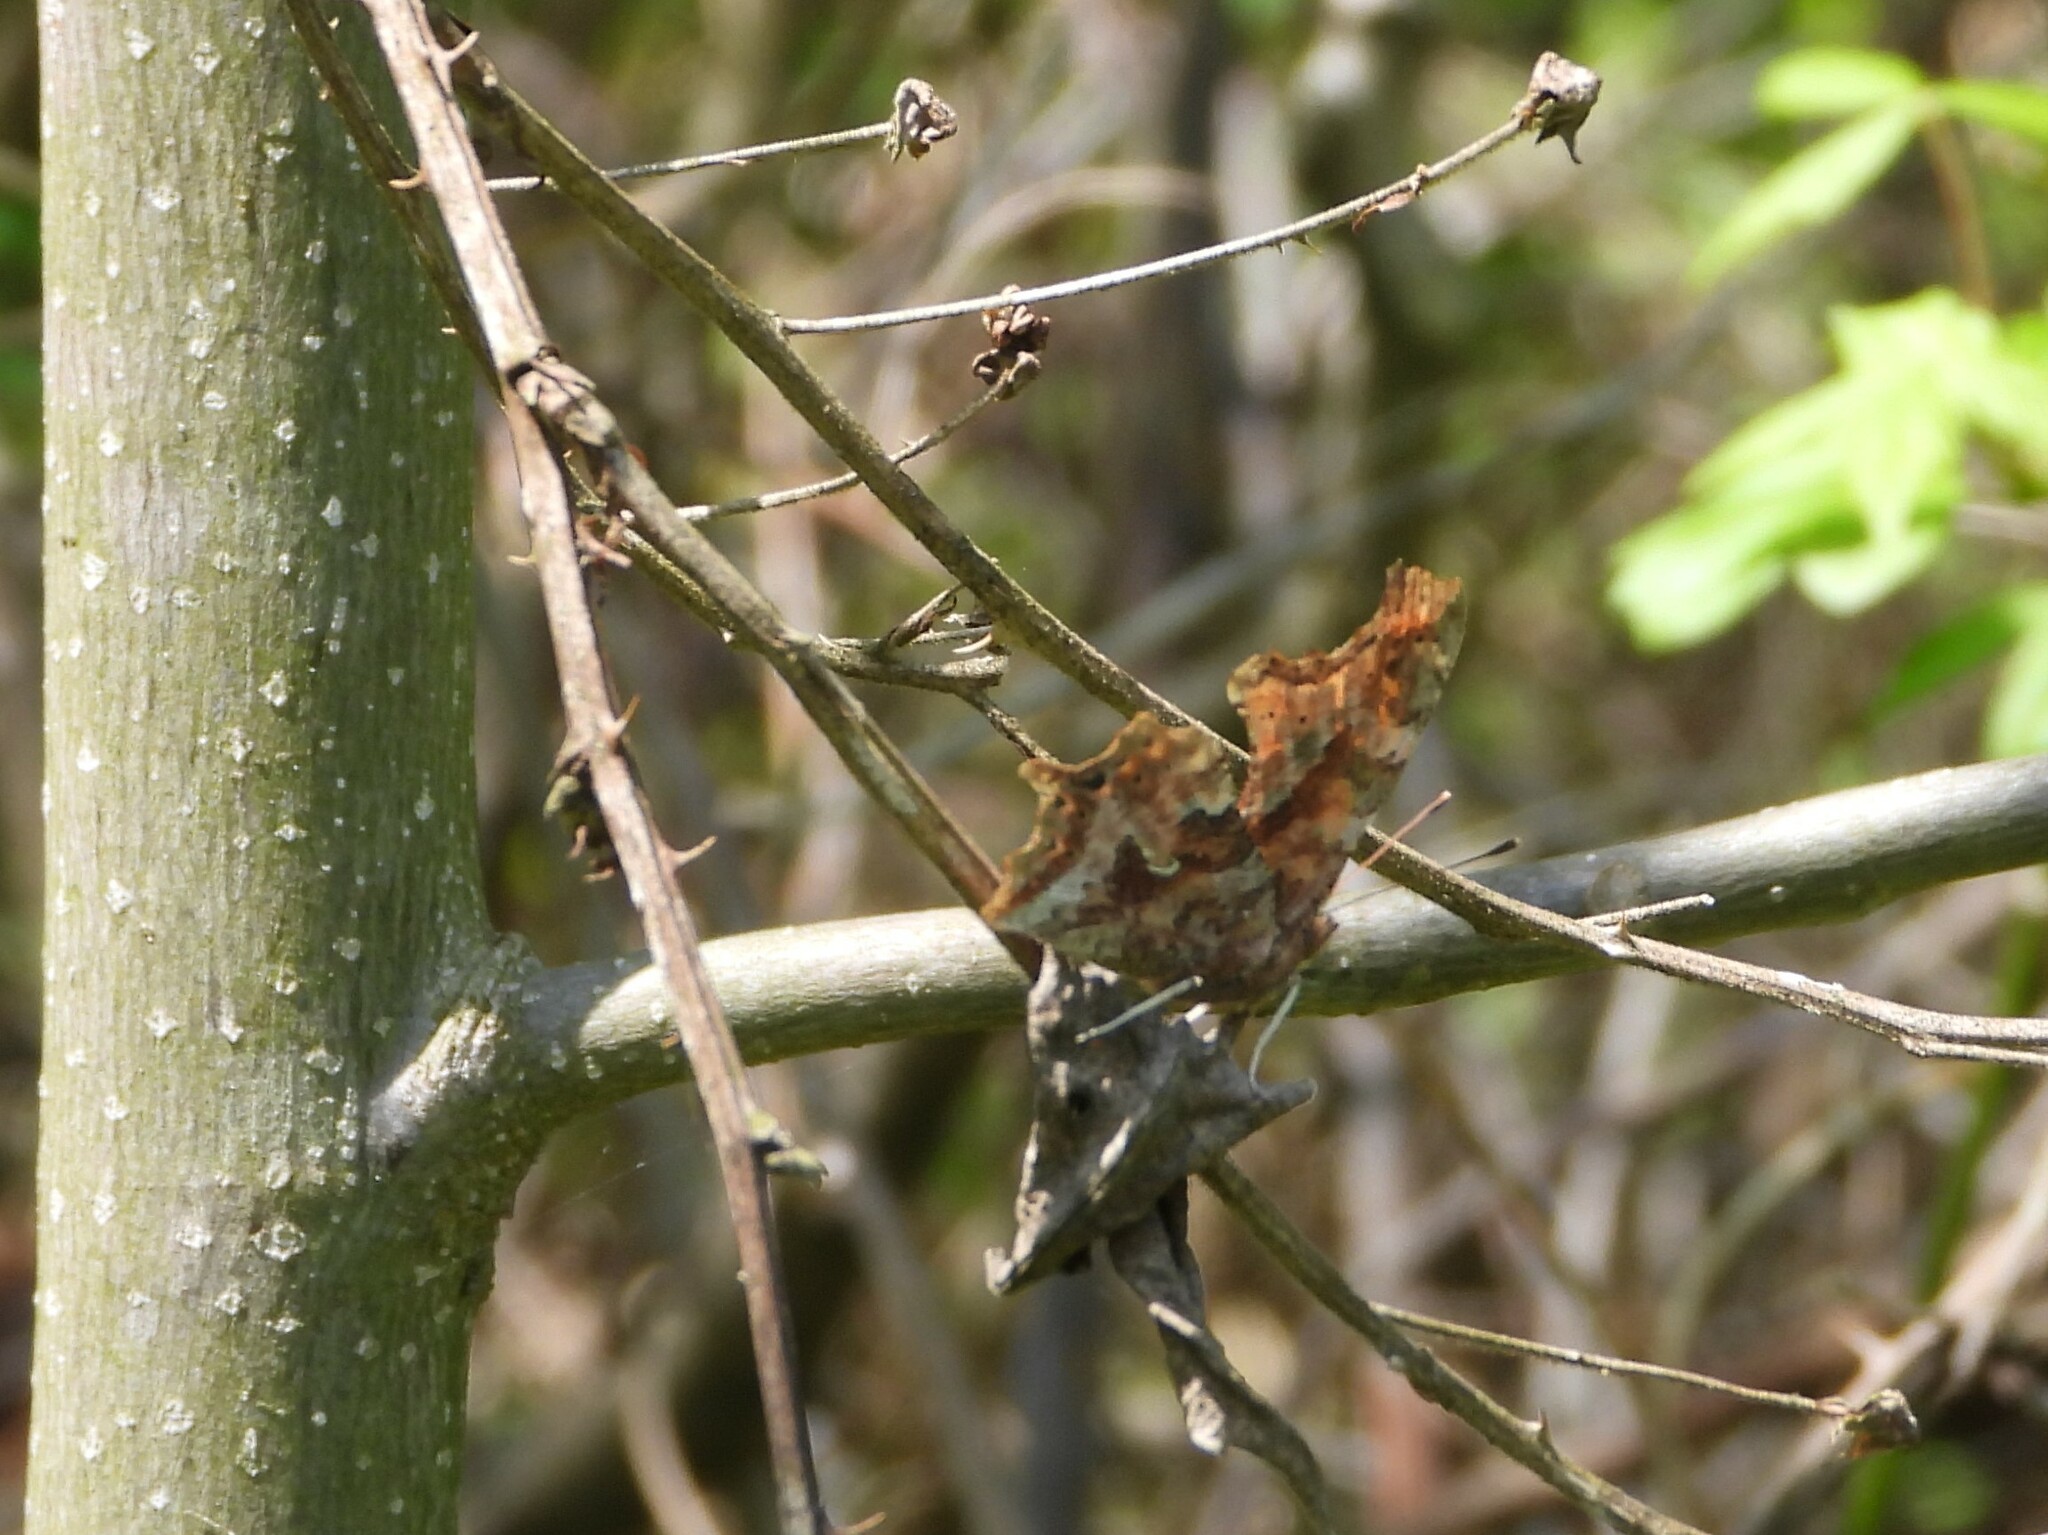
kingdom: Animalia
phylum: Arthropoda
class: Insecta
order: Lepidoptera
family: Nymphalidae
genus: Polygonia
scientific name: Polygonia interrogationis
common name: Question mark
